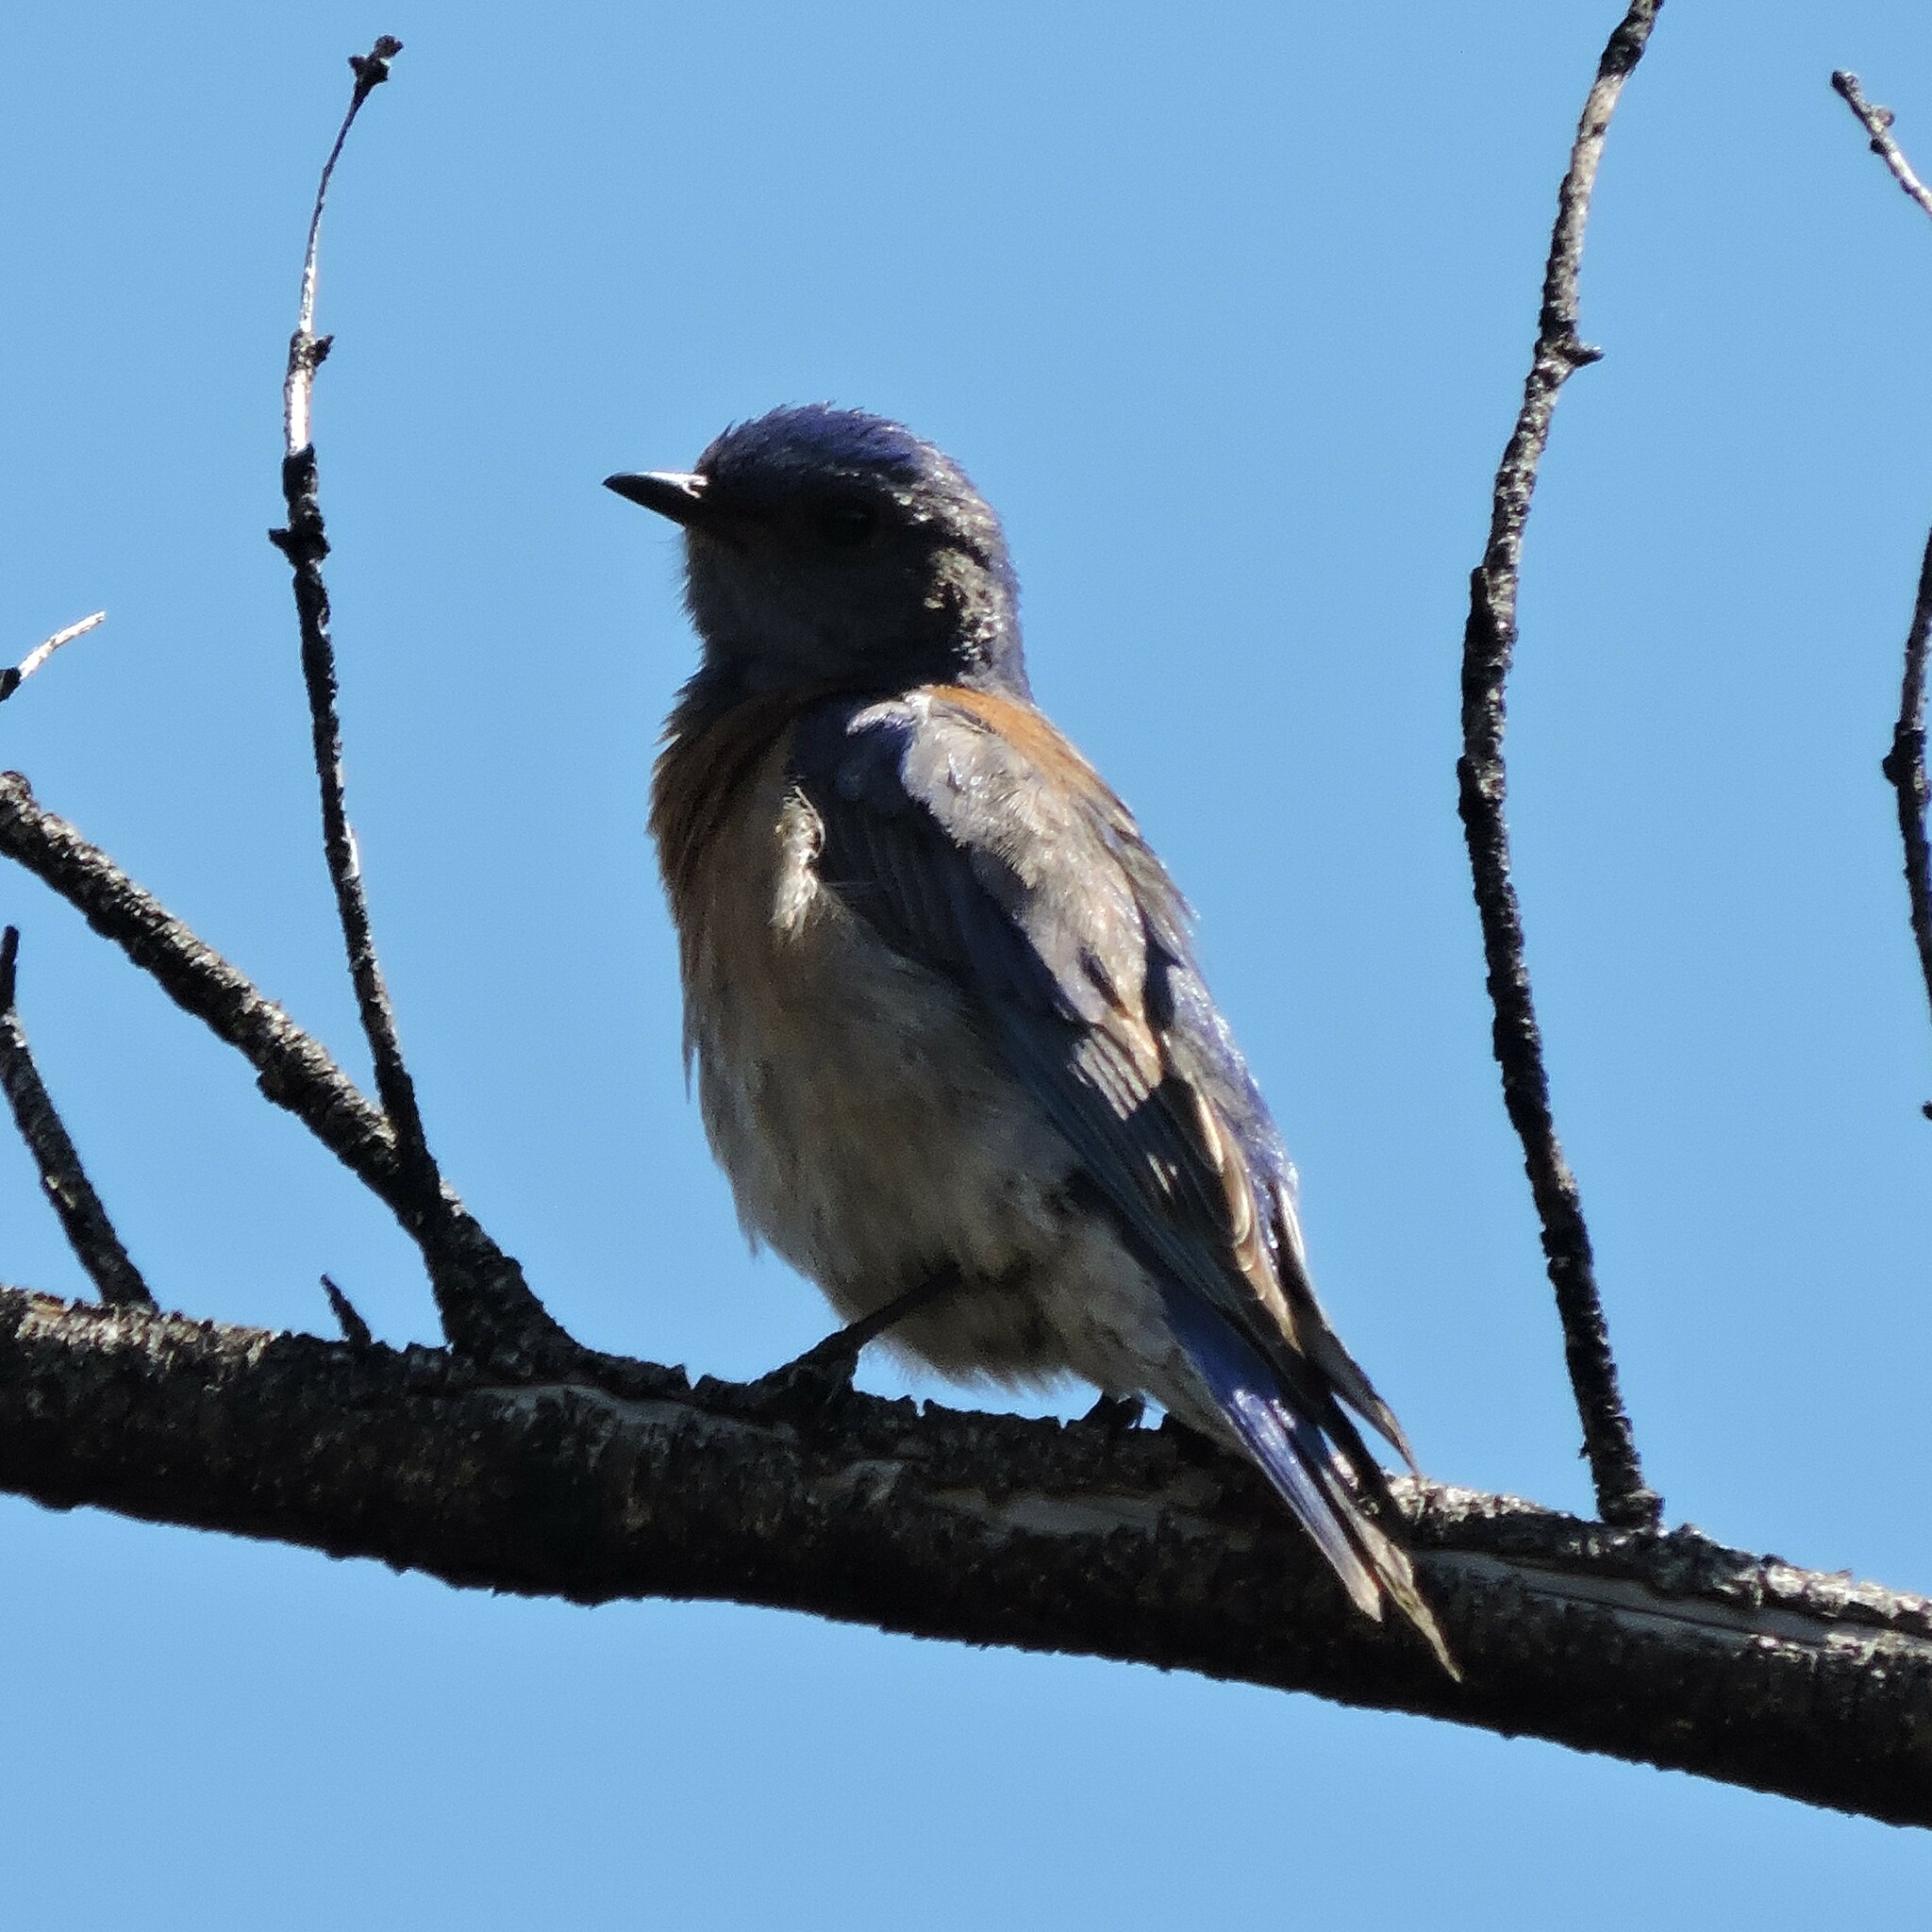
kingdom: Animalia
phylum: Chordata
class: Aves
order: Passeriformes
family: Turdidae
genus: Sialia
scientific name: Sialia mexicana
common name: Western bluebird
